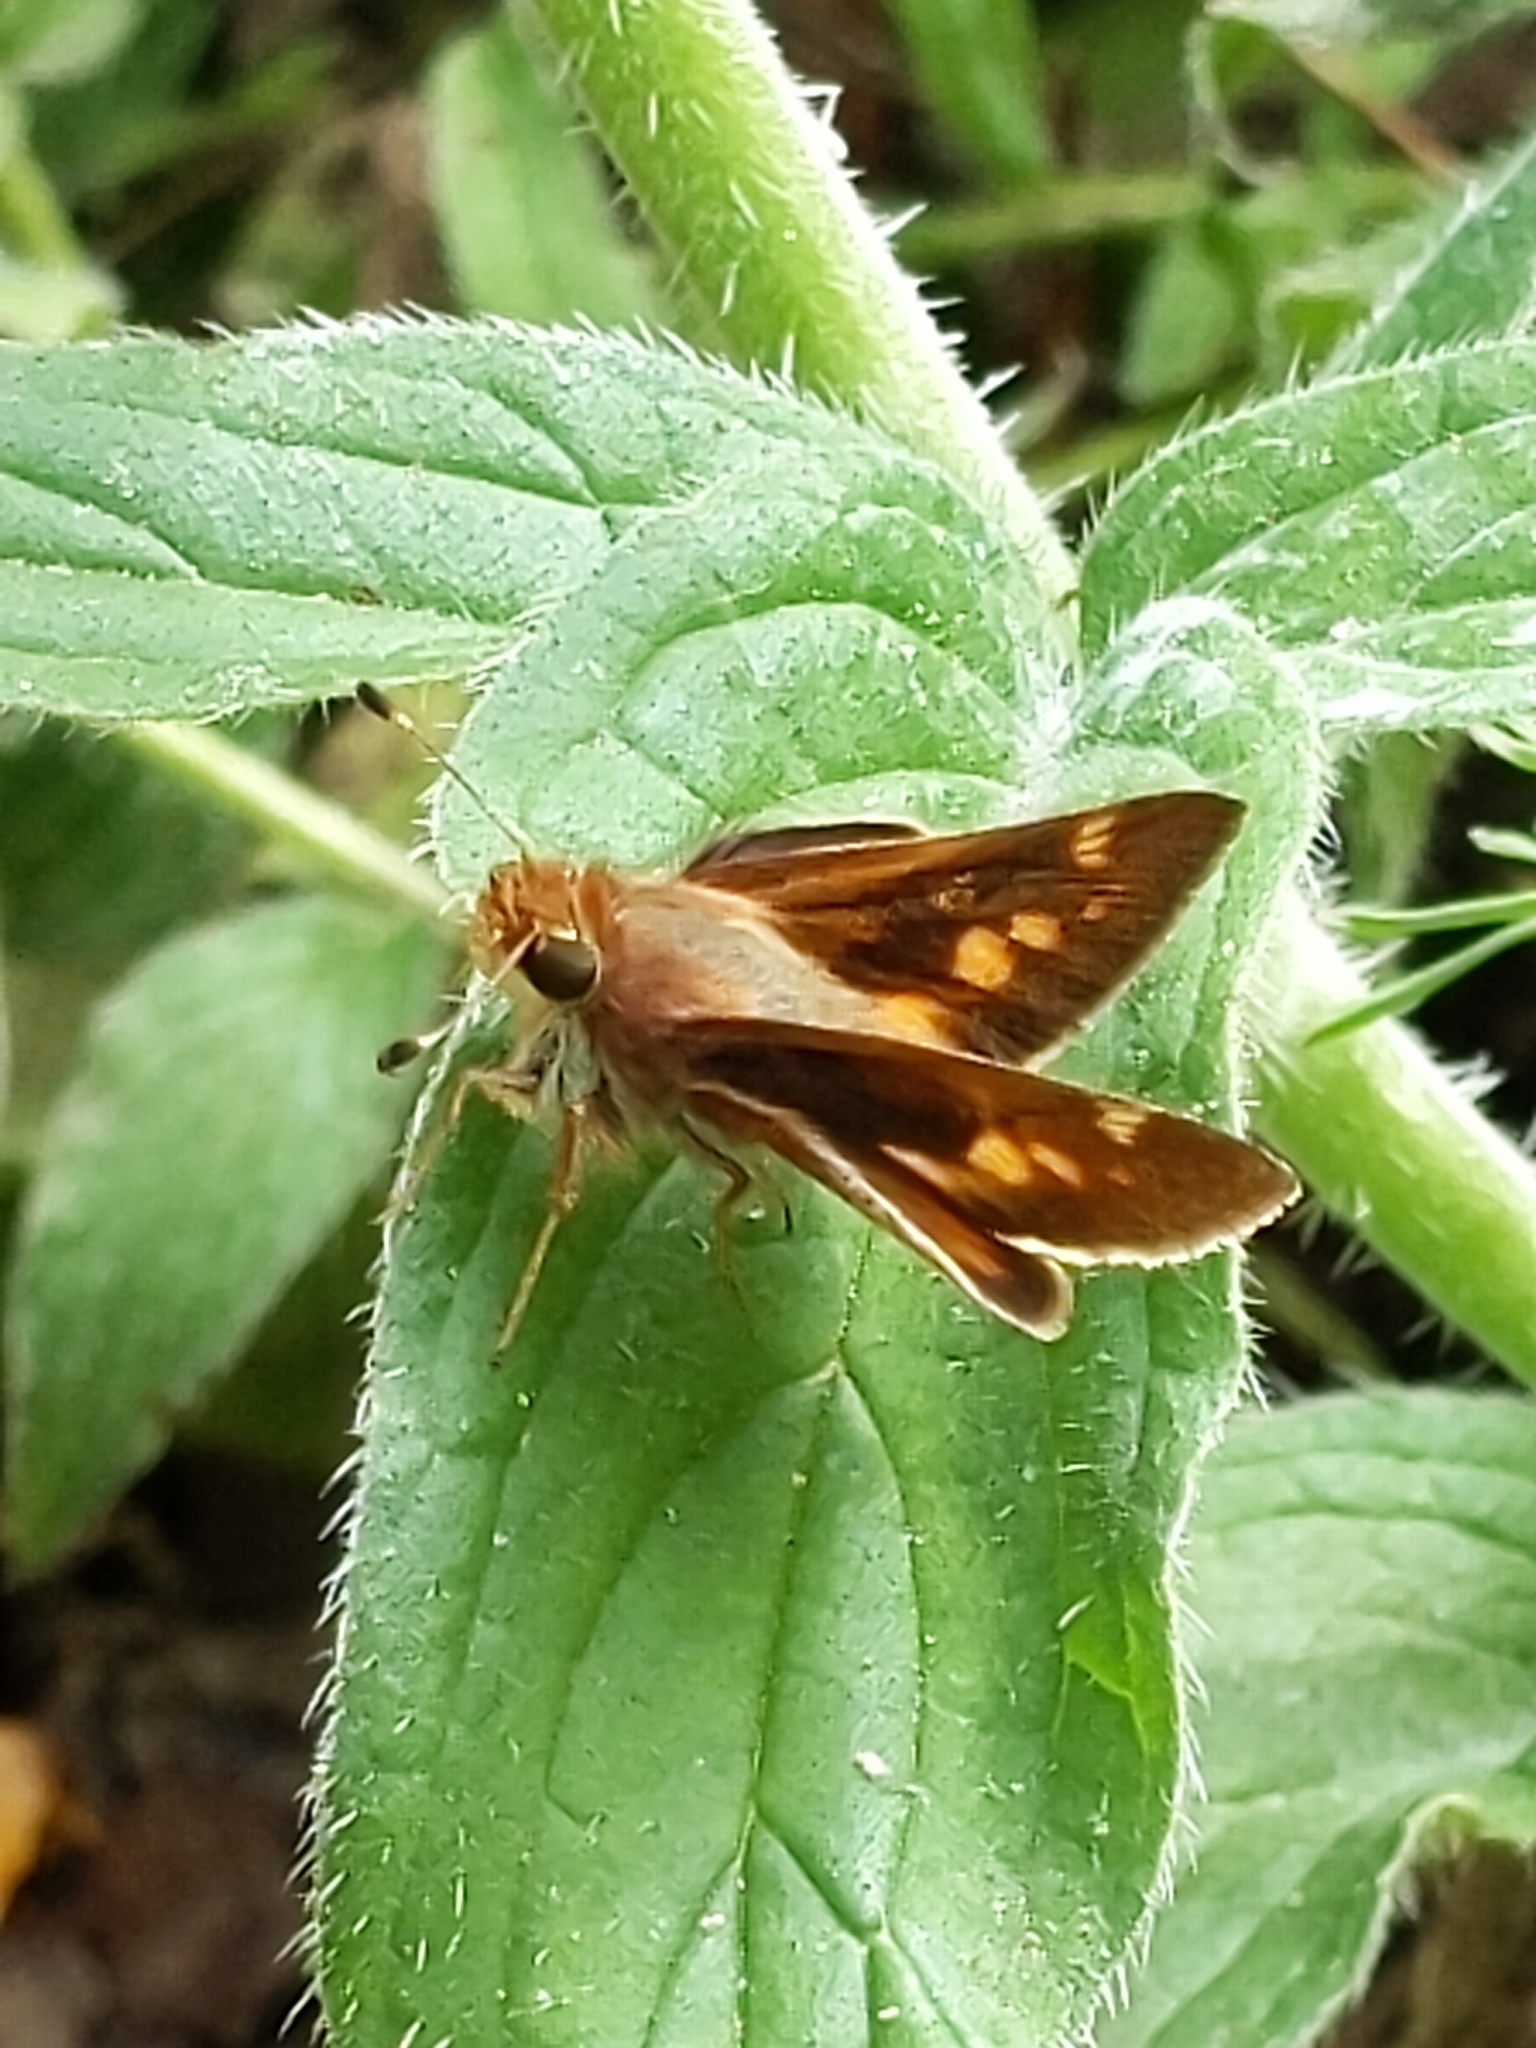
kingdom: Animalia
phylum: Arthropoda
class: Insecta
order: Lepidoptera
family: Hesperiidae
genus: Lon
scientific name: Lon melane
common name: Umber skipper
